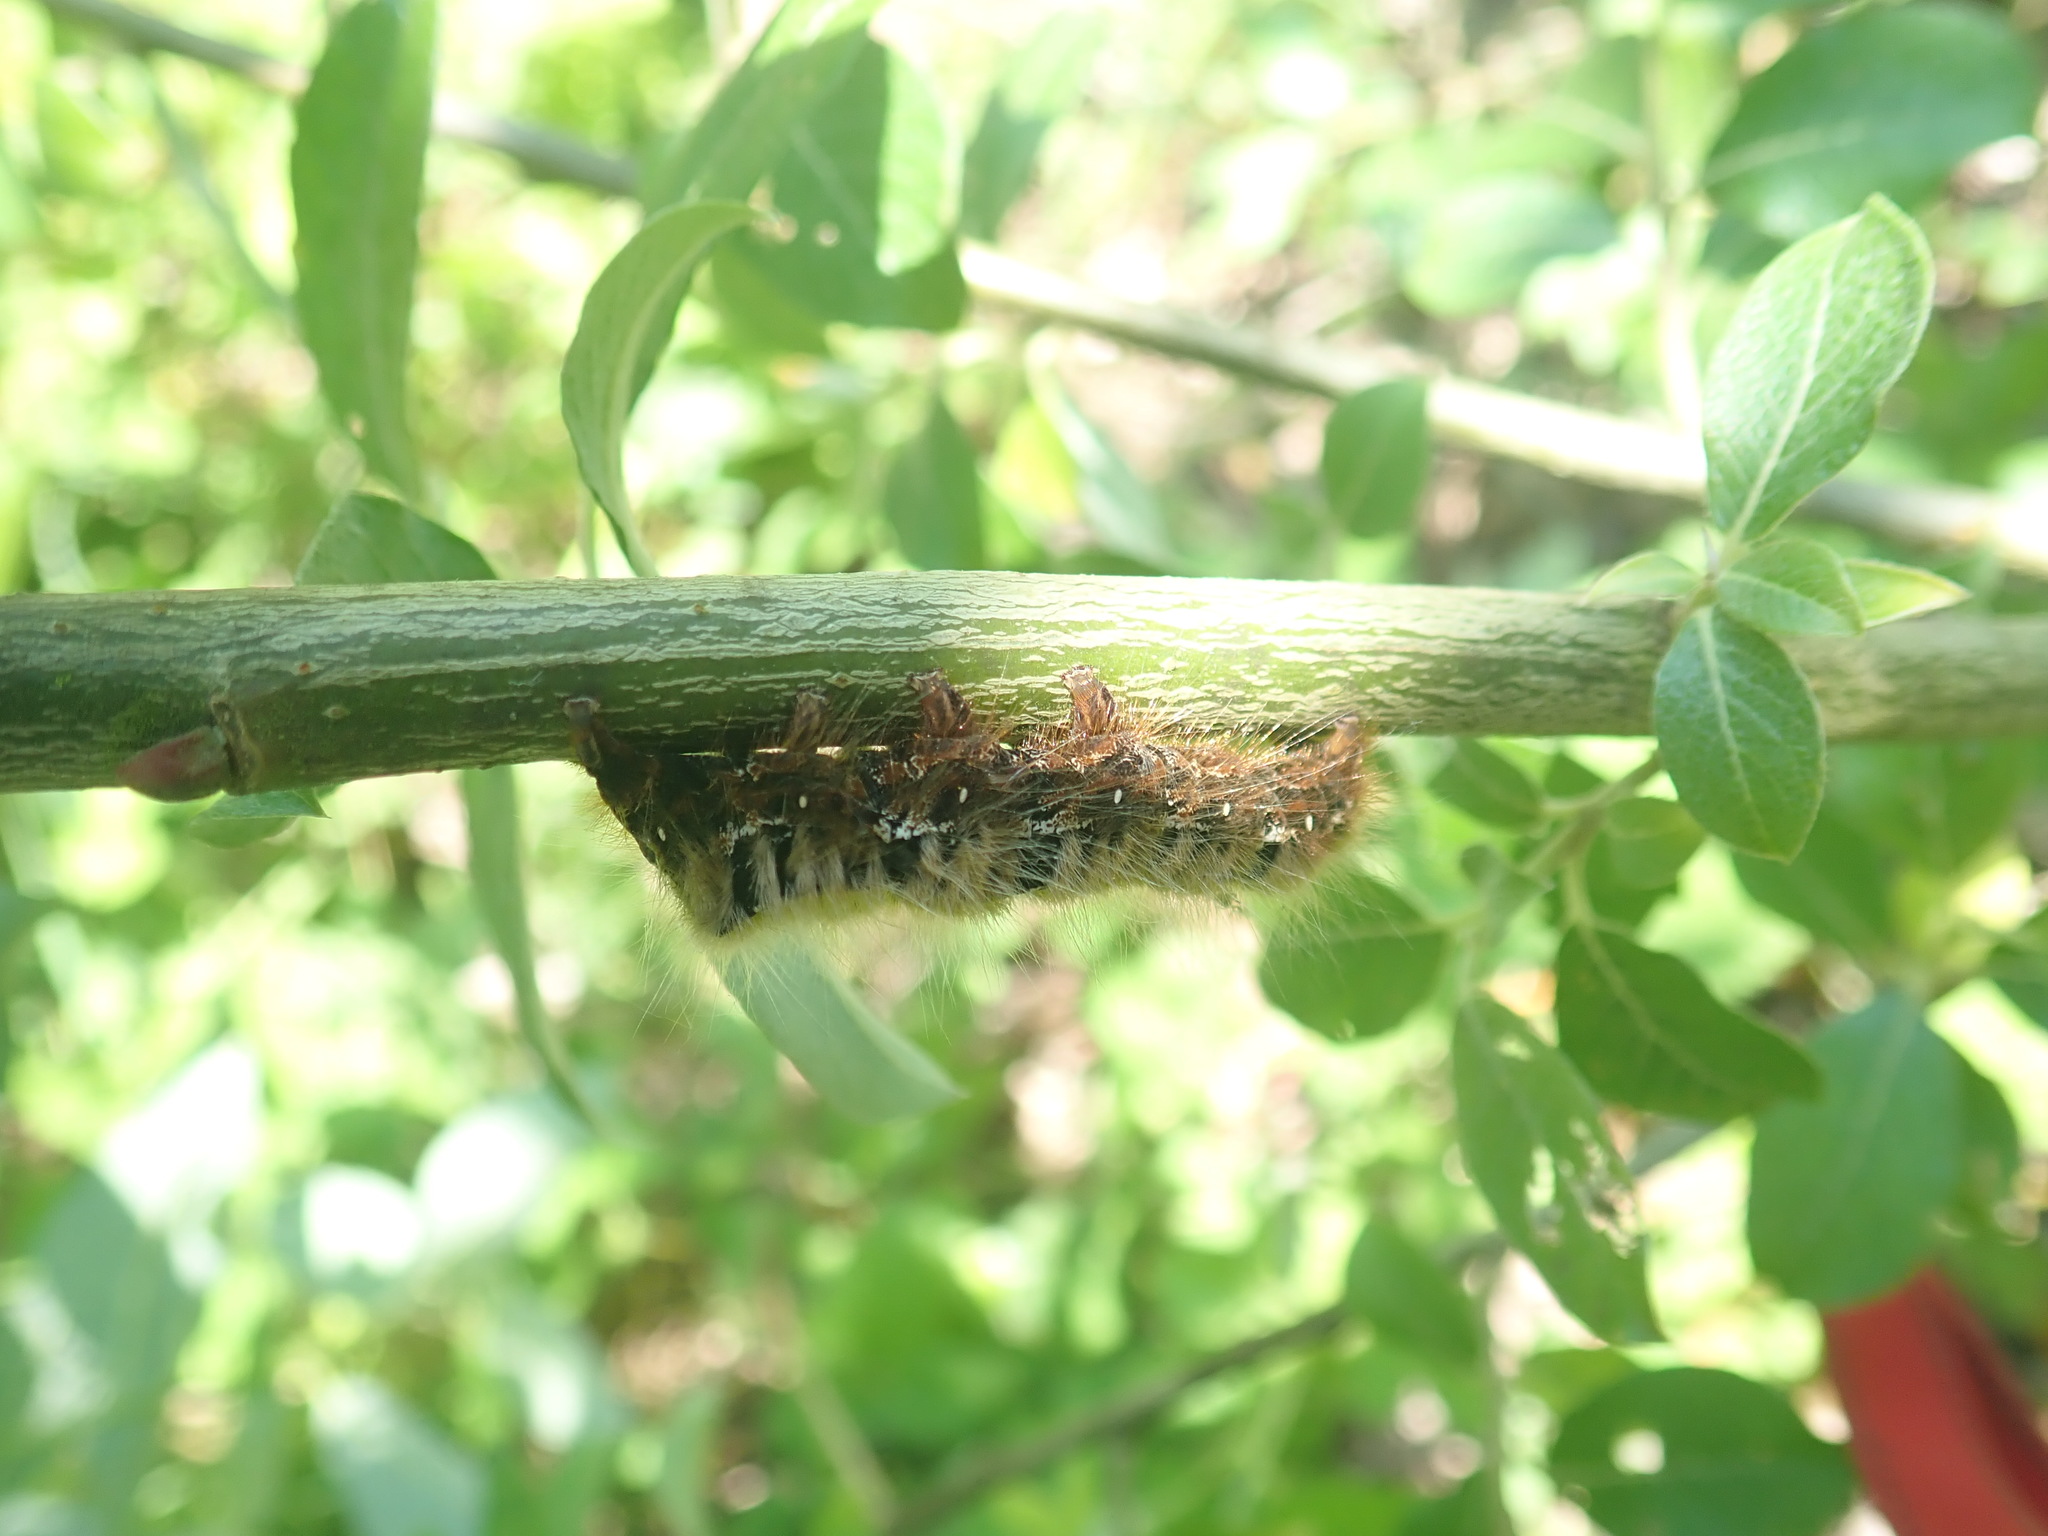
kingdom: Animalia
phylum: Arthropoda
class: Insecta
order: Lepidoptera
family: Lasiocampidae
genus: Lasiocampa
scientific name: Lasiocampa quercus
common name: Oak eggar
